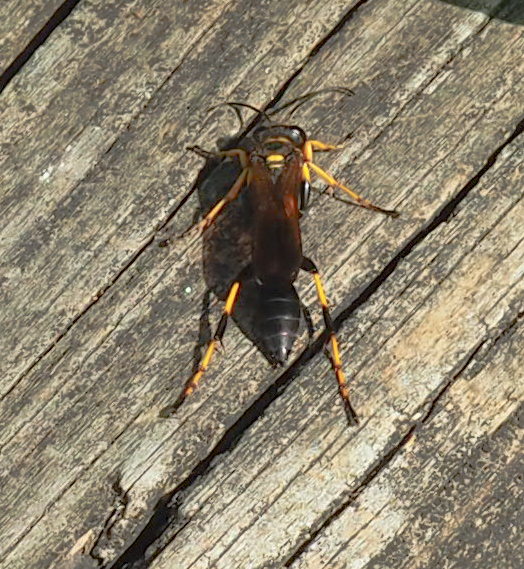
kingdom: Animalia
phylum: Arthropoda
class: Insecta
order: Hymenoptera
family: Sphecidae
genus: Sceliphron
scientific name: Sceliphron caementarium
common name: Mud dauber
